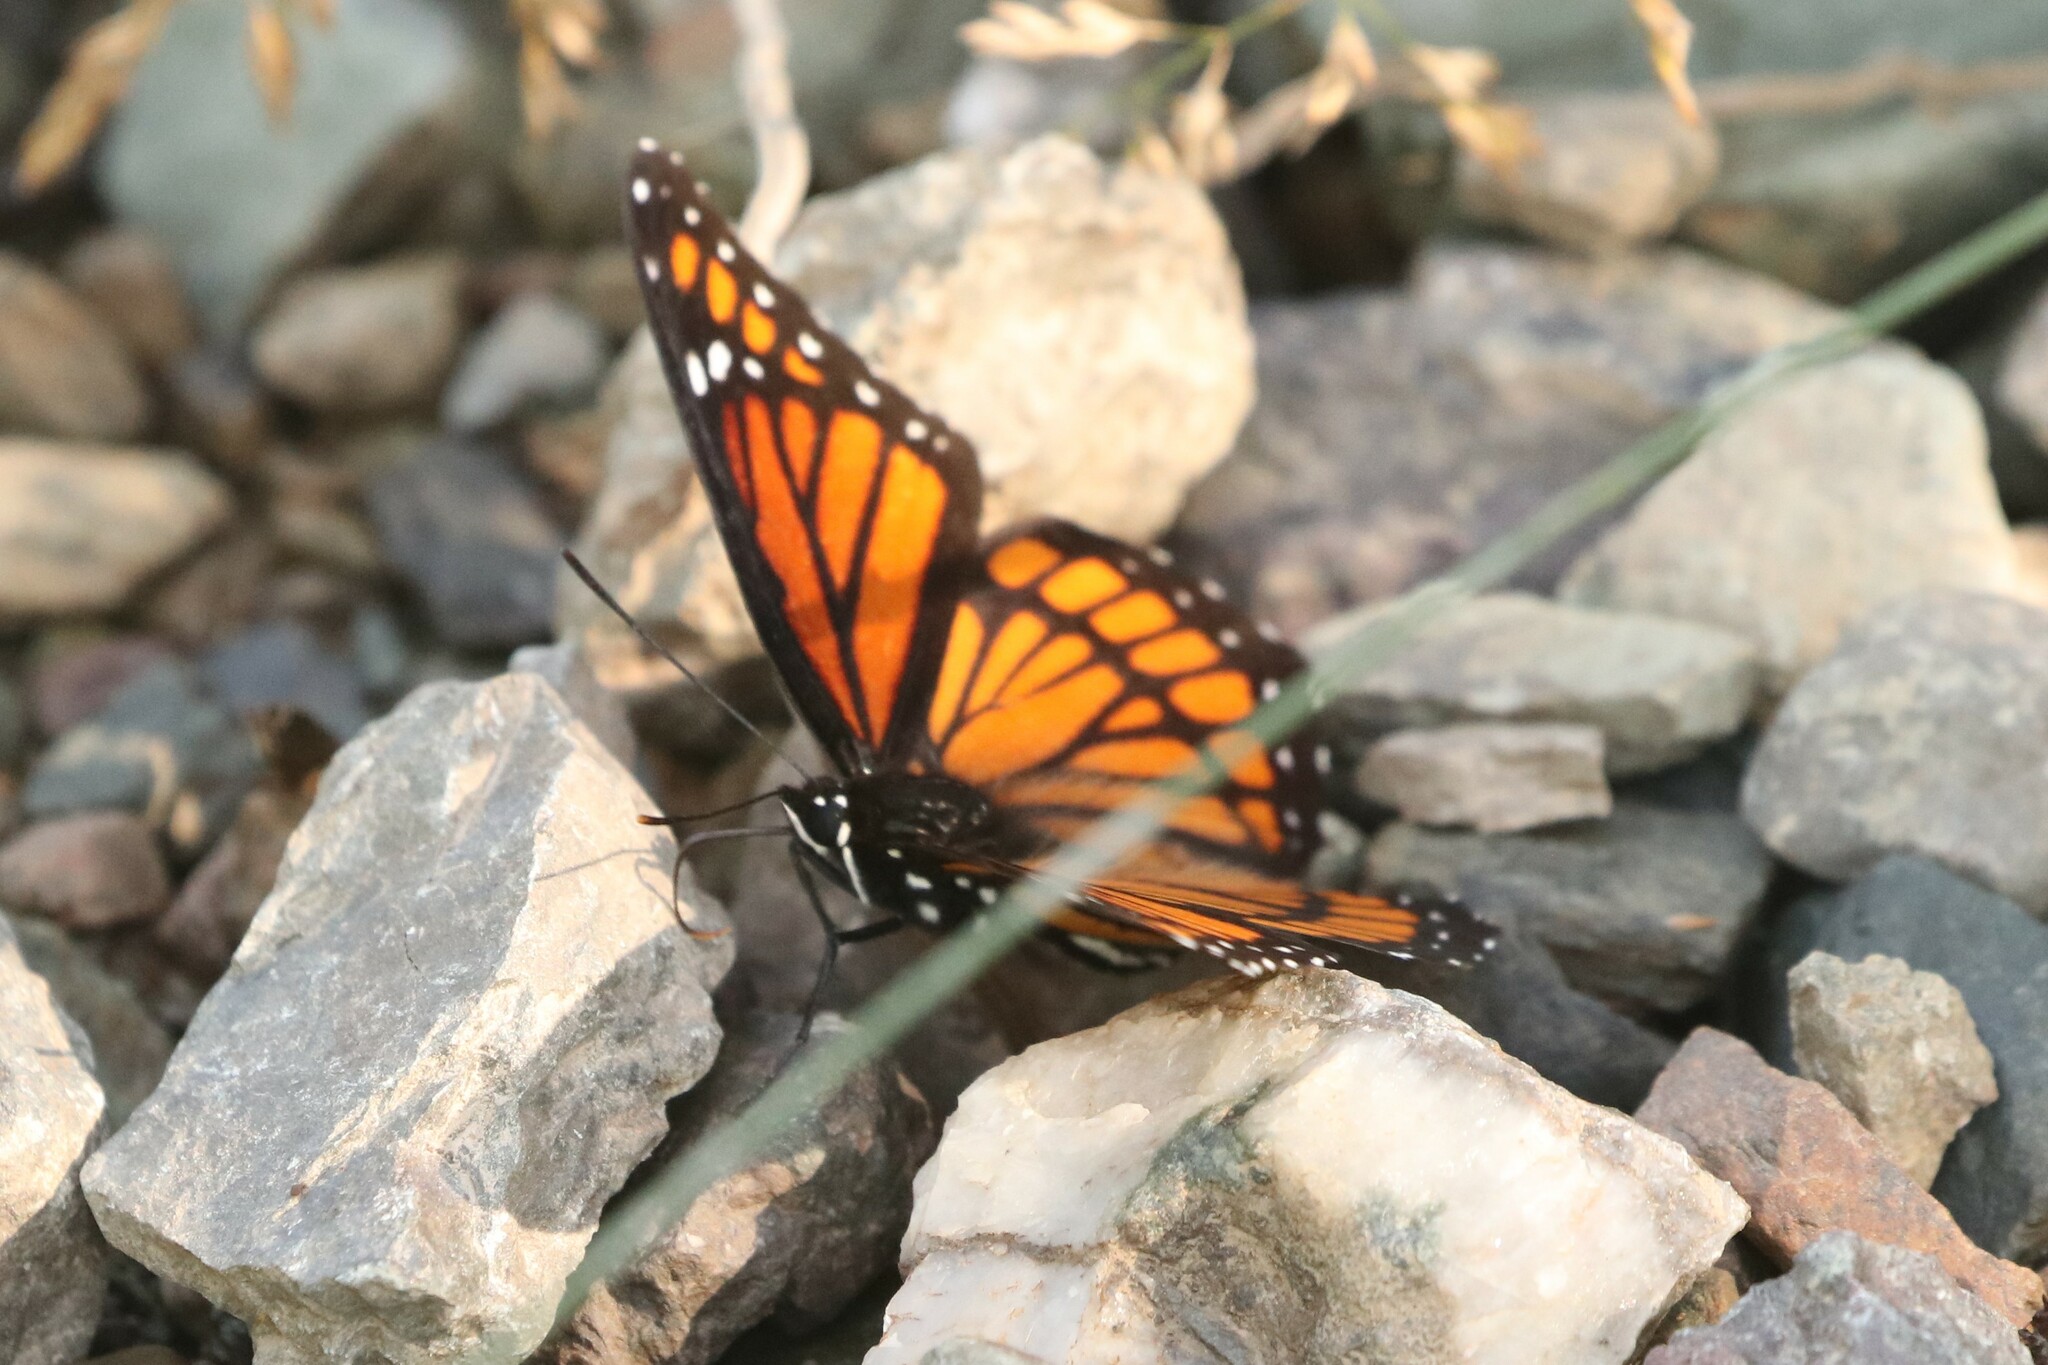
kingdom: Animalia
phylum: Arthropoda
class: Insecta
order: Lepidoptera
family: Nymphalidae
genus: Limenitis
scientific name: Limenitis archippus
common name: Viceroy
